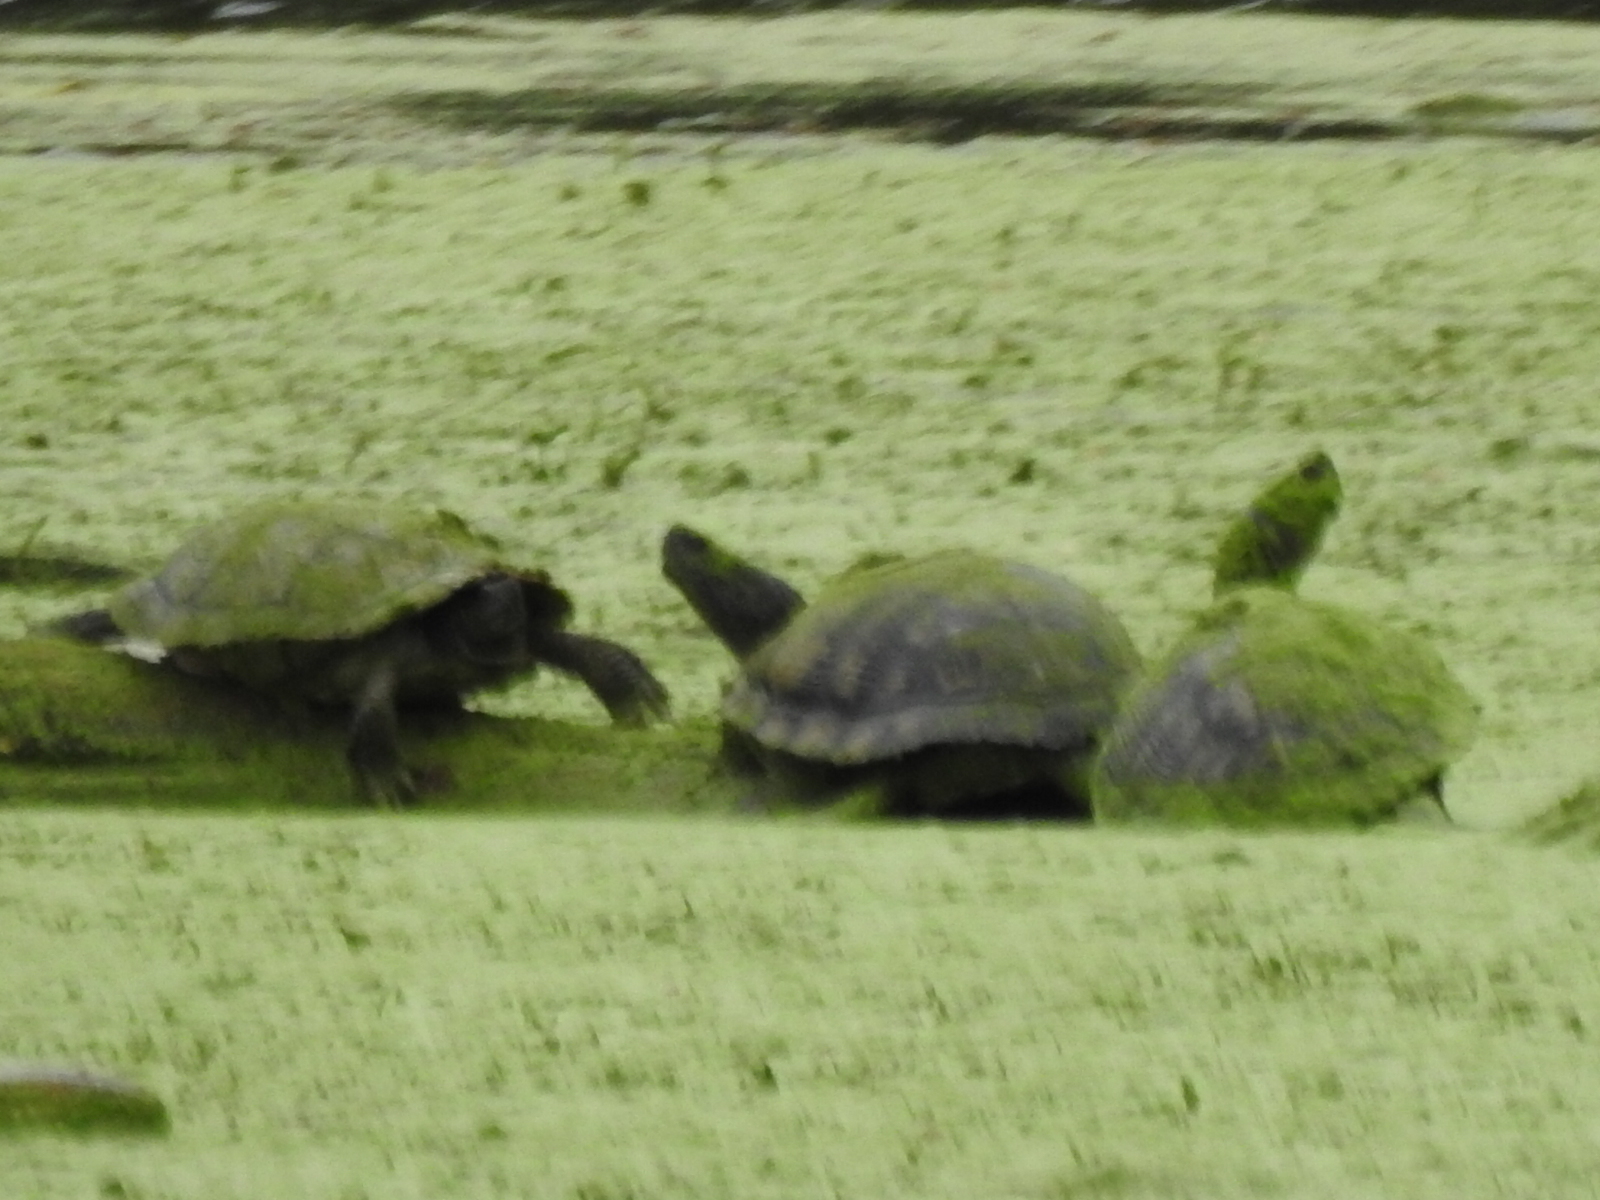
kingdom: Animalia
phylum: Chordata
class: Testudines
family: Emydidae
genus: Trachemys
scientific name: Trachemys scripta
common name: Slider
